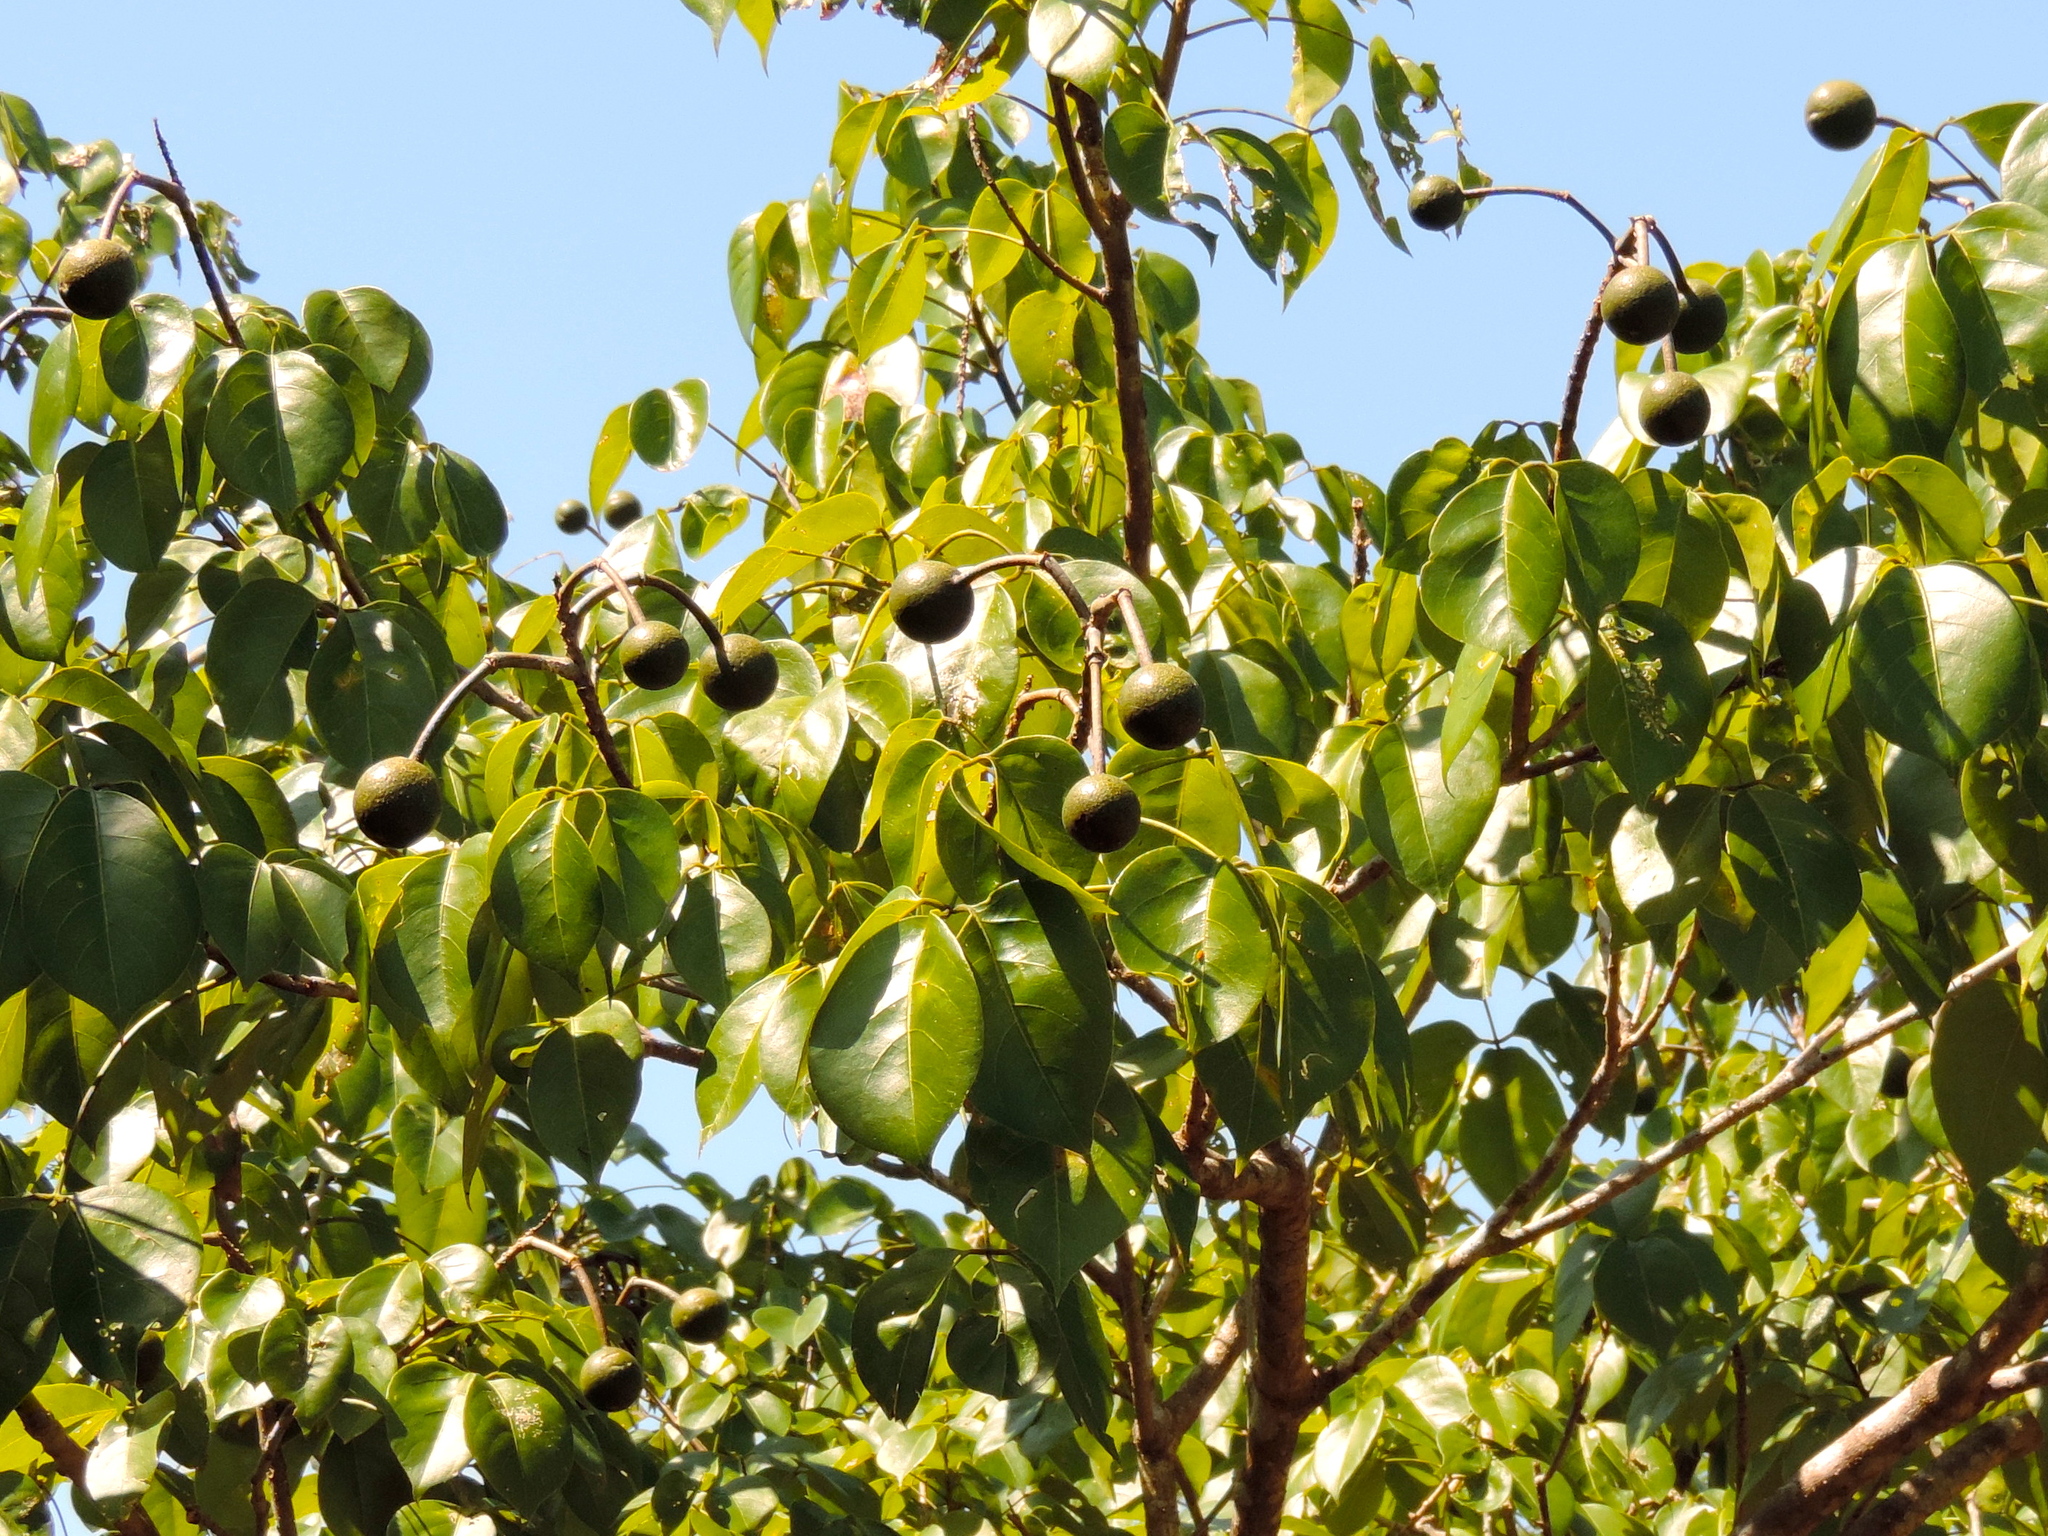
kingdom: Plantae
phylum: Tracheophyta
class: Magnoliopsida
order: Brassicales
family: Capparaceae
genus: Crateva
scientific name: Crateva tapia
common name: Garlic-pear
